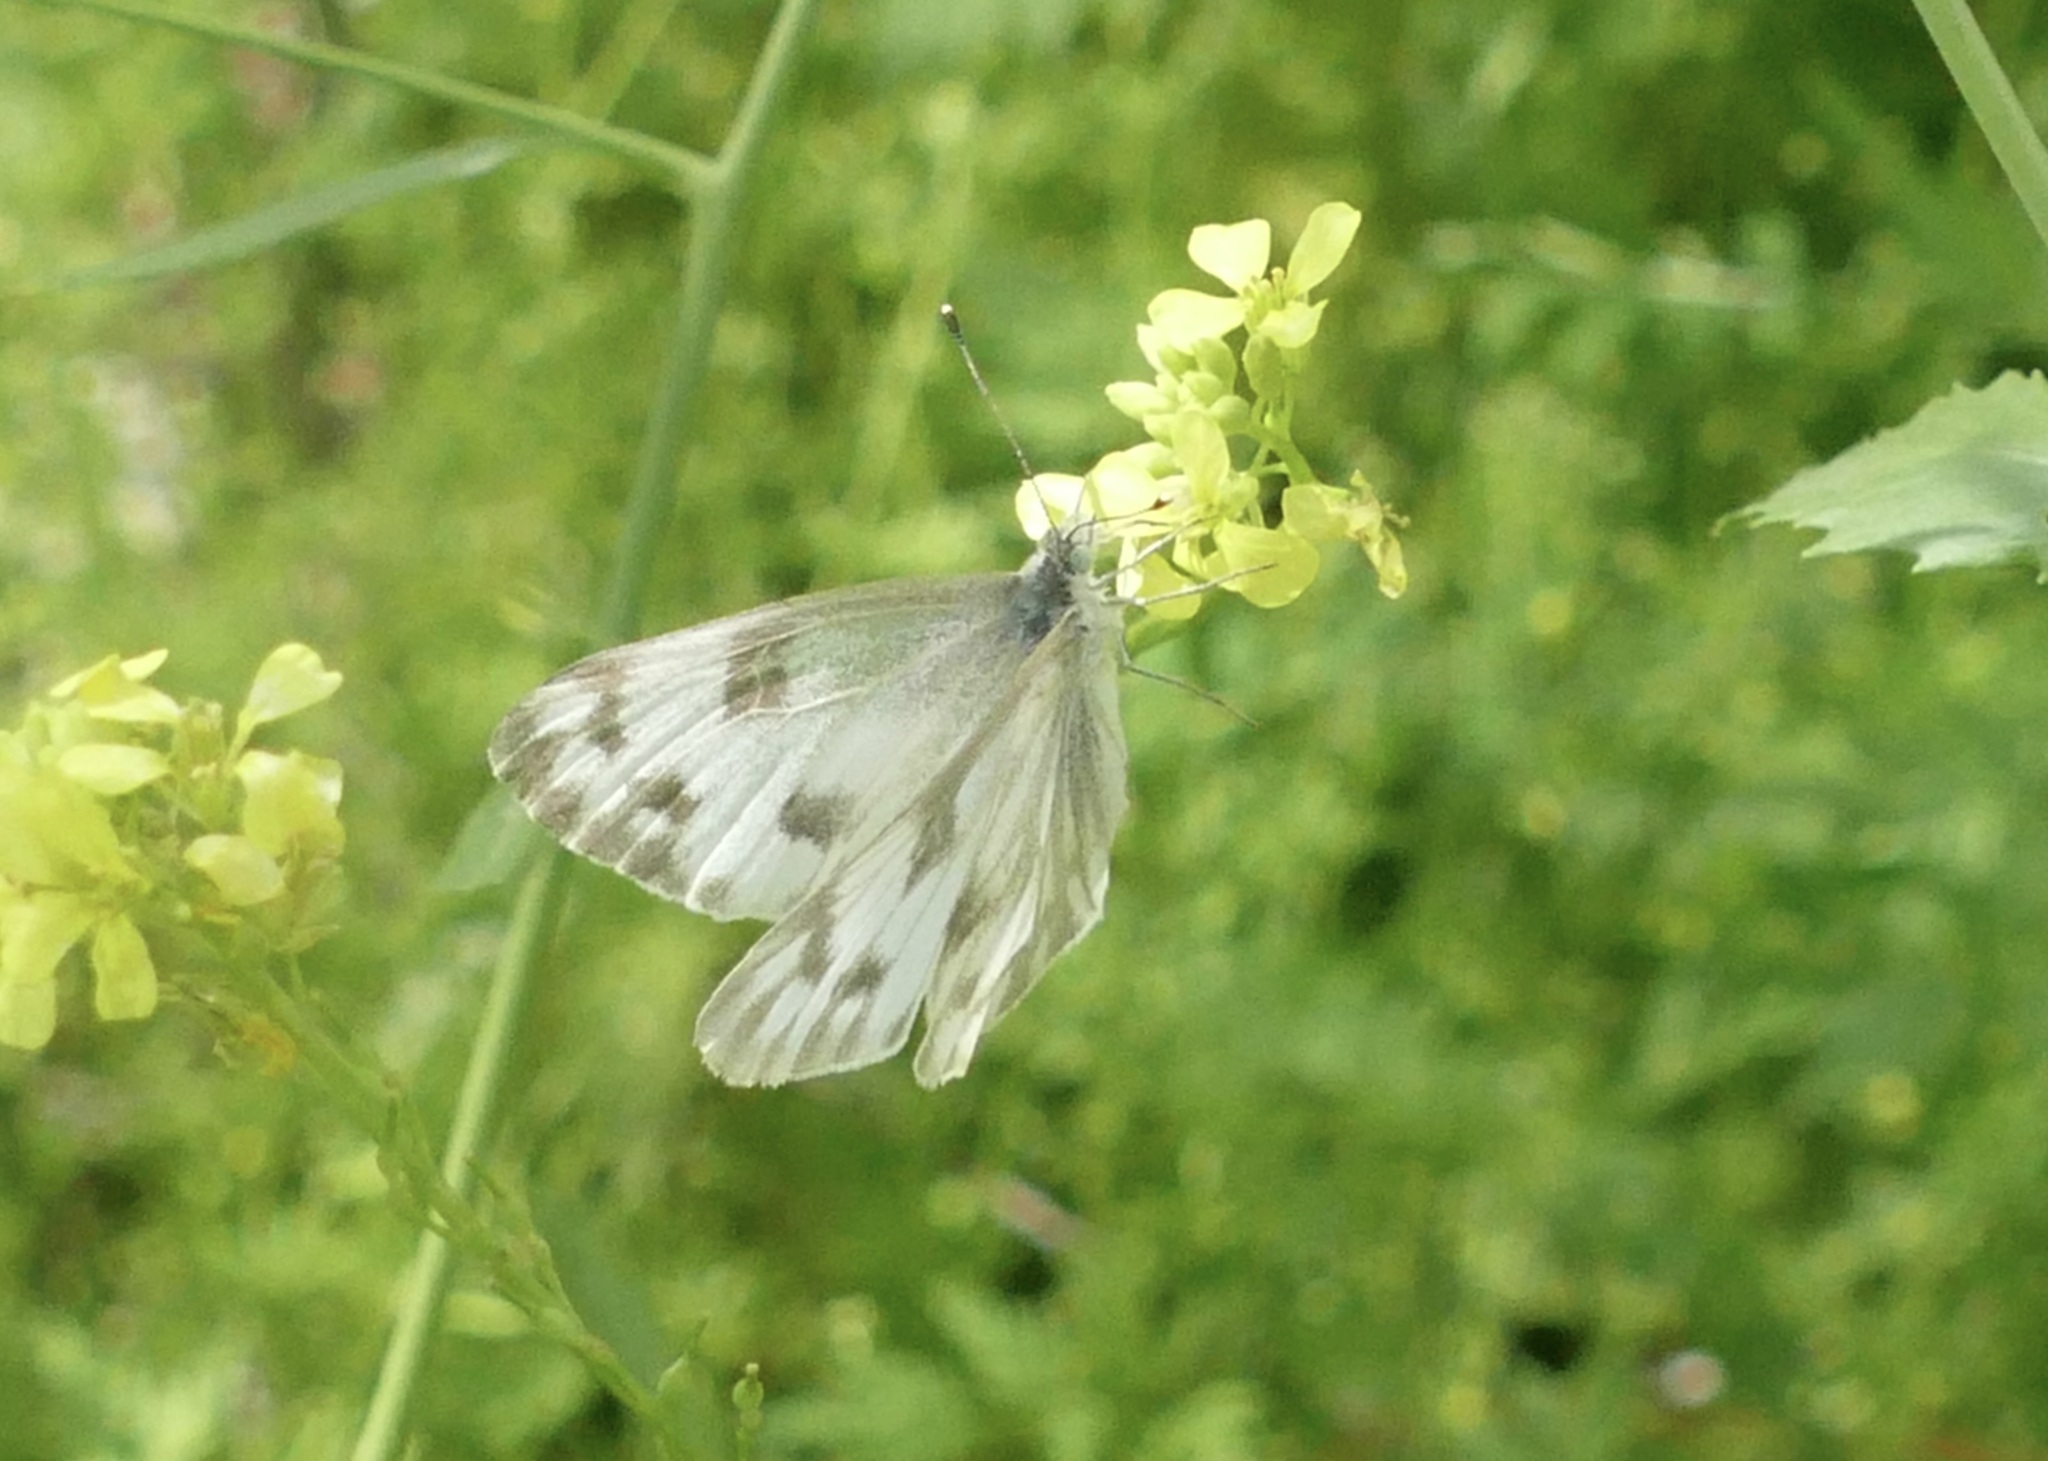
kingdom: Animalia
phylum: Arthropoda
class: Insecta
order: Lepidoptera
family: Pieridae
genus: Pontia
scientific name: Pontia protodice
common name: Checkered white
